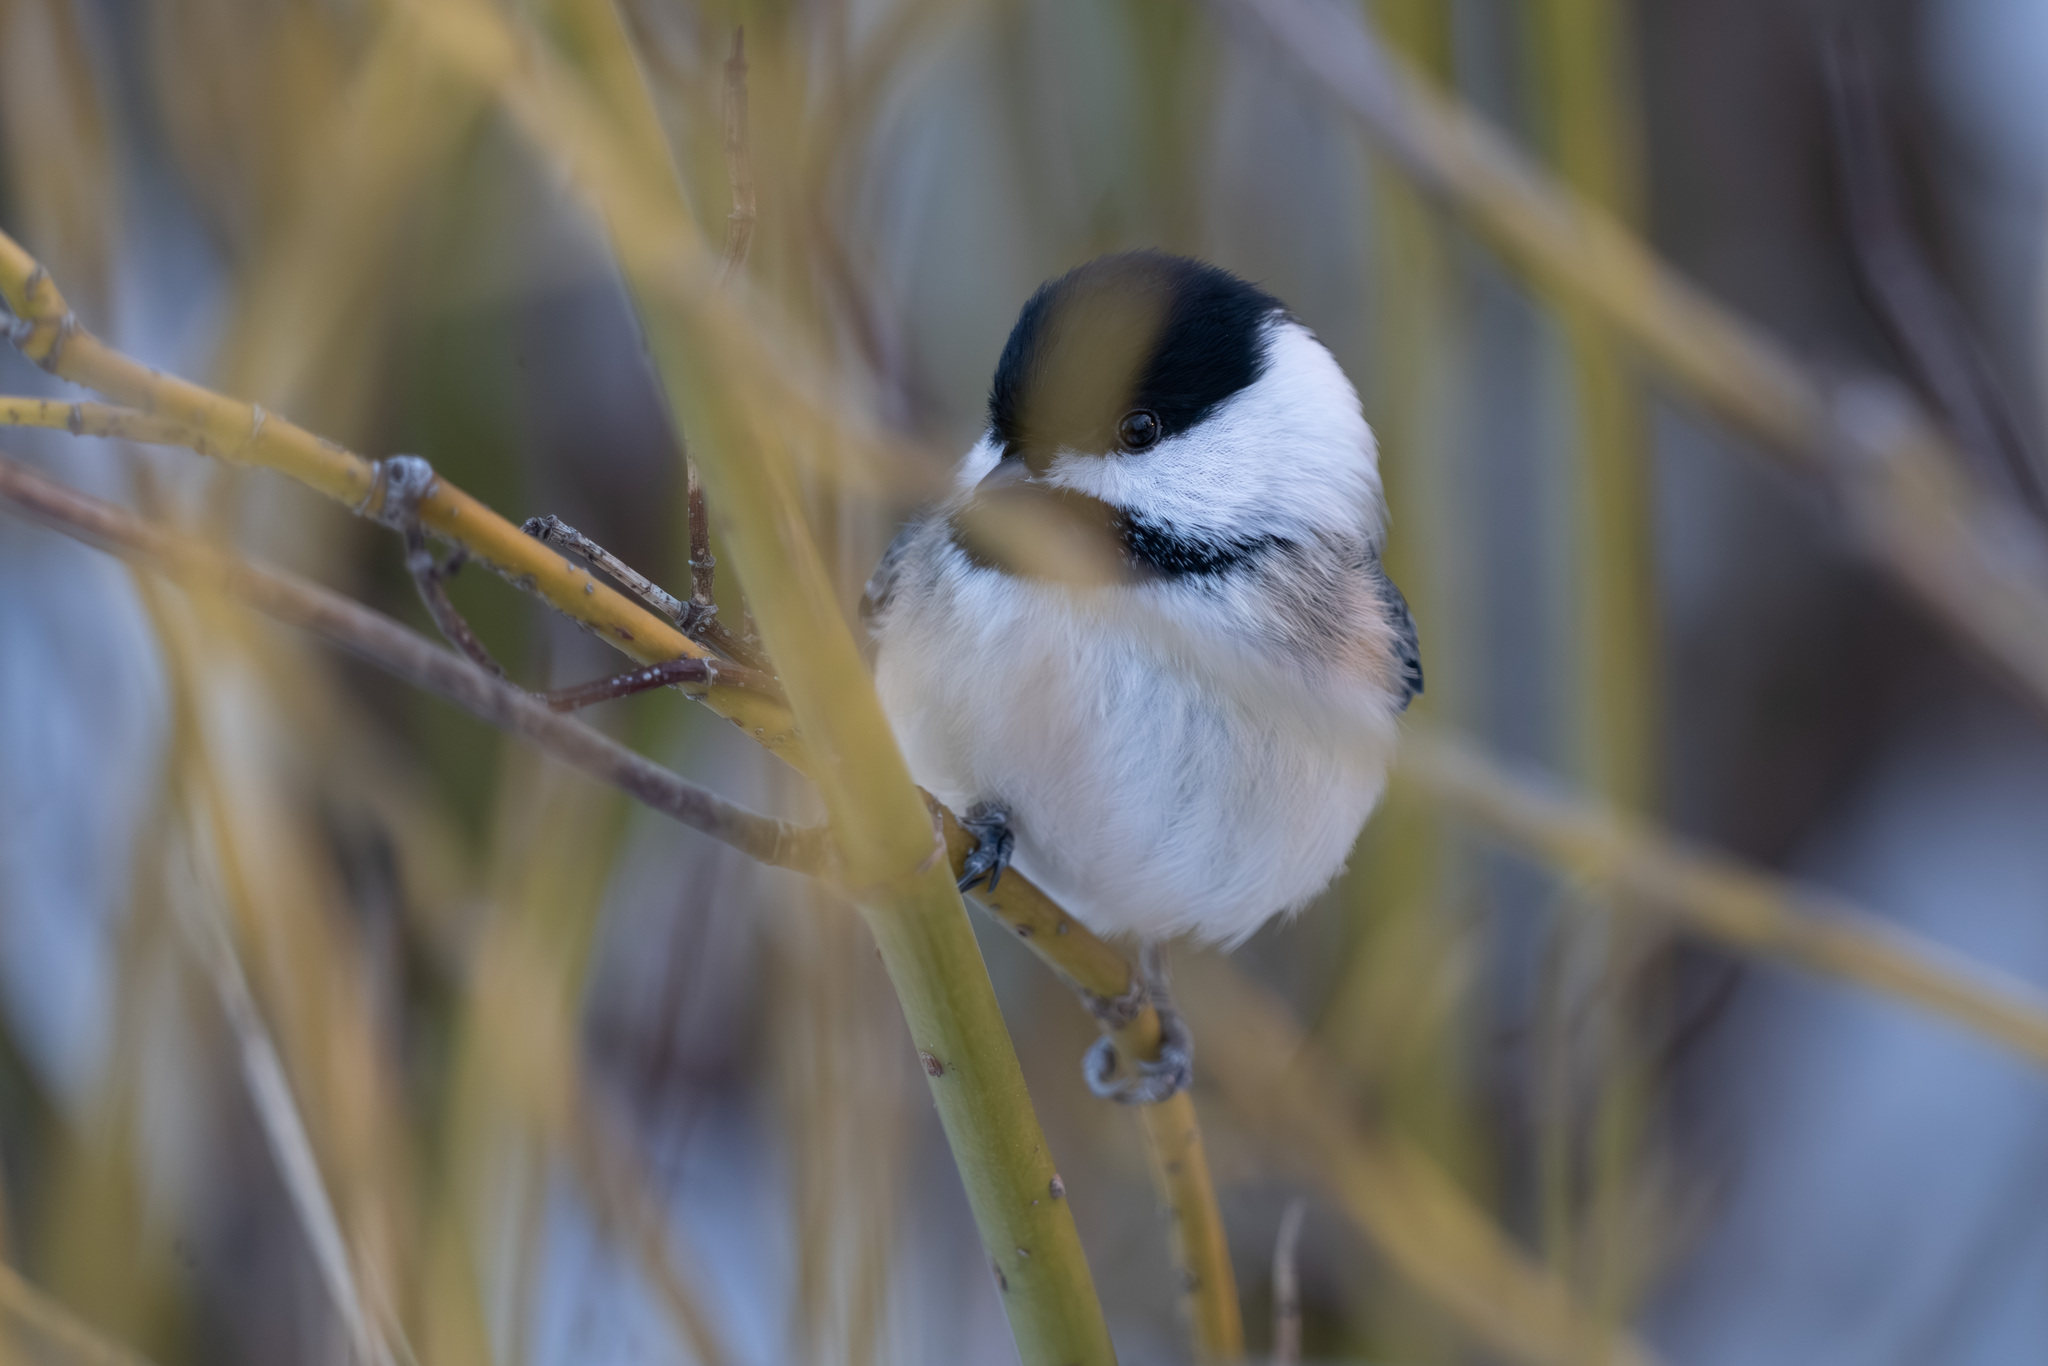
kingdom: Animalia
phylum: Chordata
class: Aves
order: Passeriformes
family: Paridae
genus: Poecile
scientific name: Poecile atricapillus
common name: Black-capped chickadee
